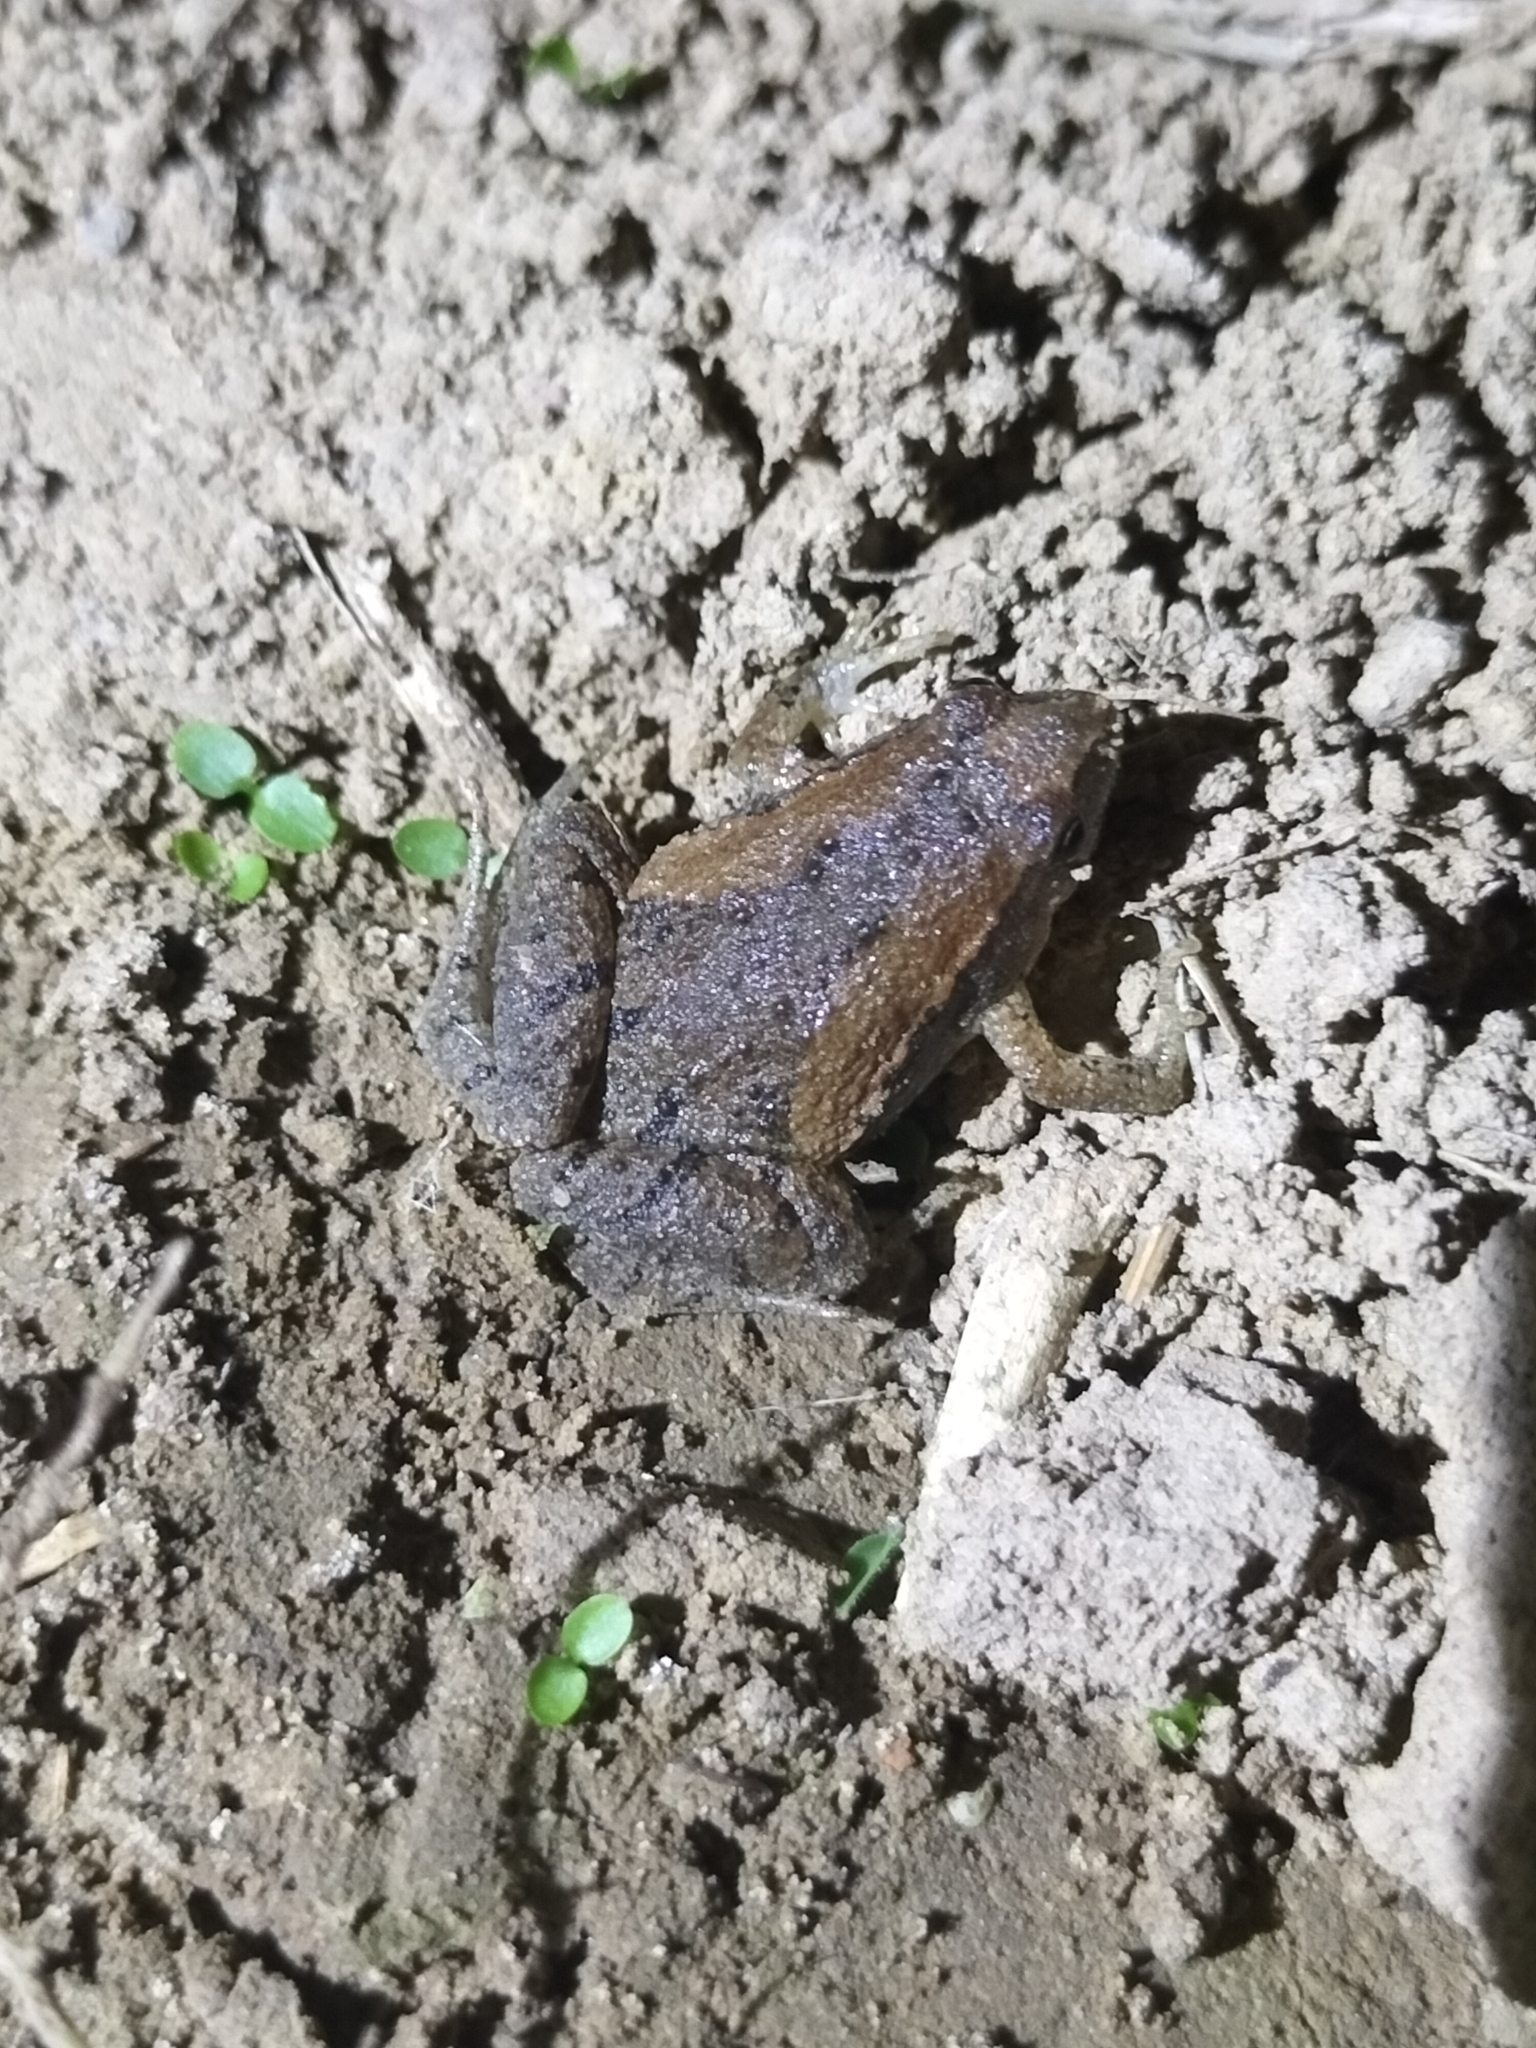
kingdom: Animalia
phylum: Chordata
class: Amphibia
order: Anura
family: Microhylidae
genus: Microhyla
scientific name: Microhyla fissipes
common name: Ornate narrow-mouthed frog
